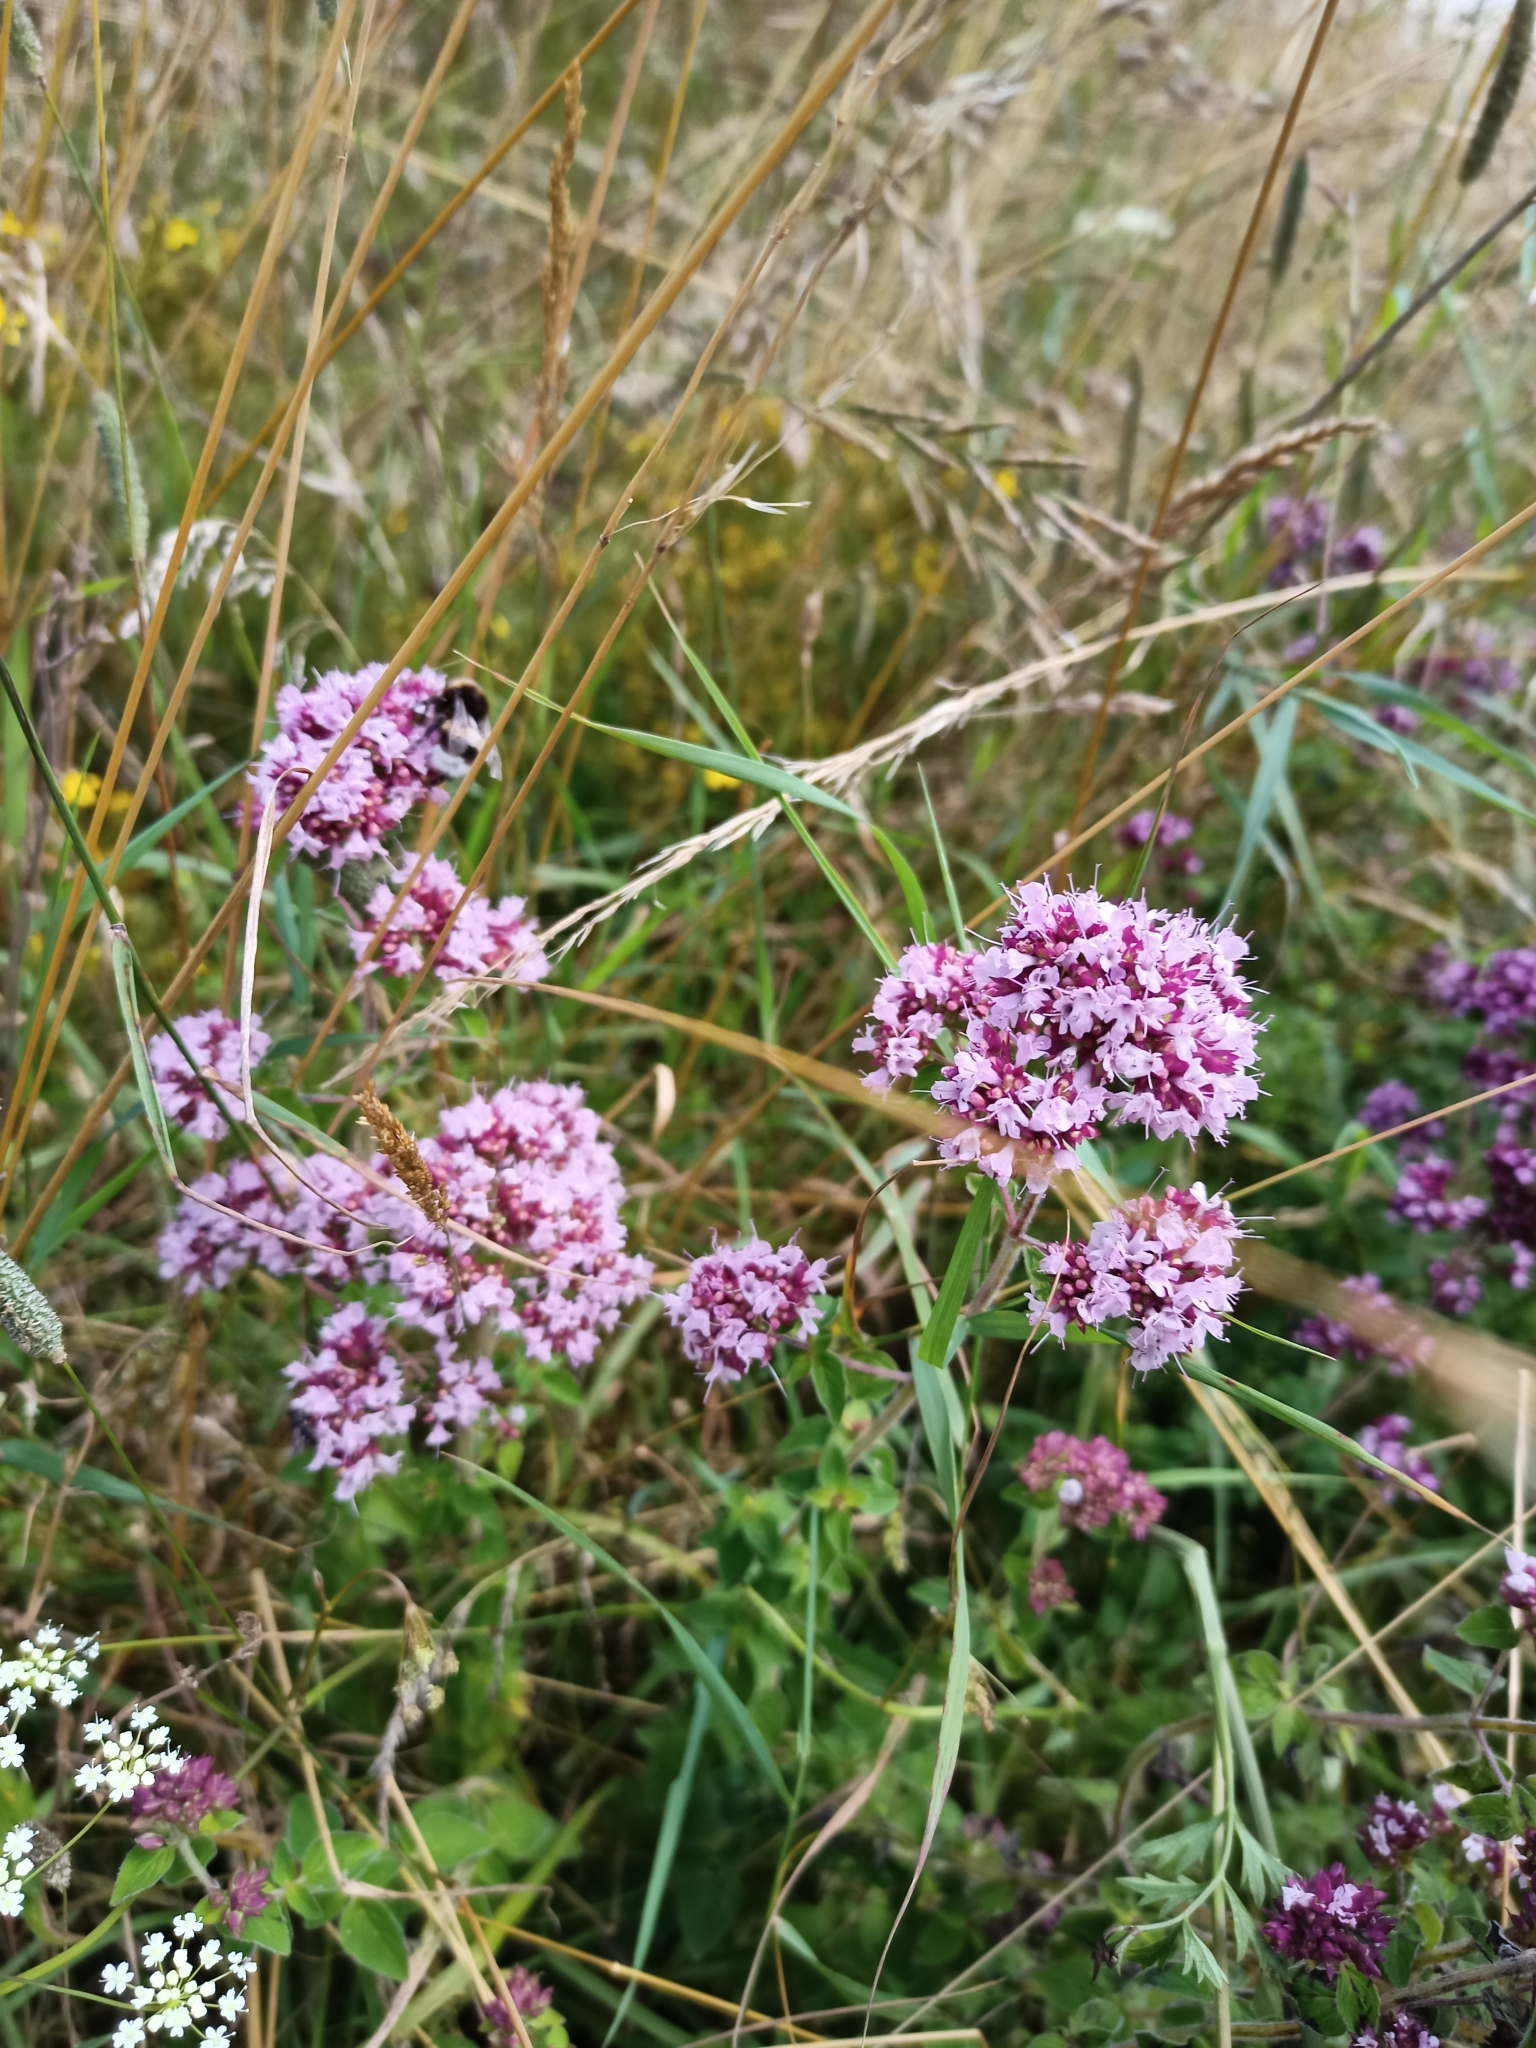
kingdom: Plantae
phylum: Tracheophyta
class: Magnoliopsida
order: Lamiales
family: Lamiaceae
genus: Origanum
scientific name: Origanum vulgare
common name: Wild marjoram
